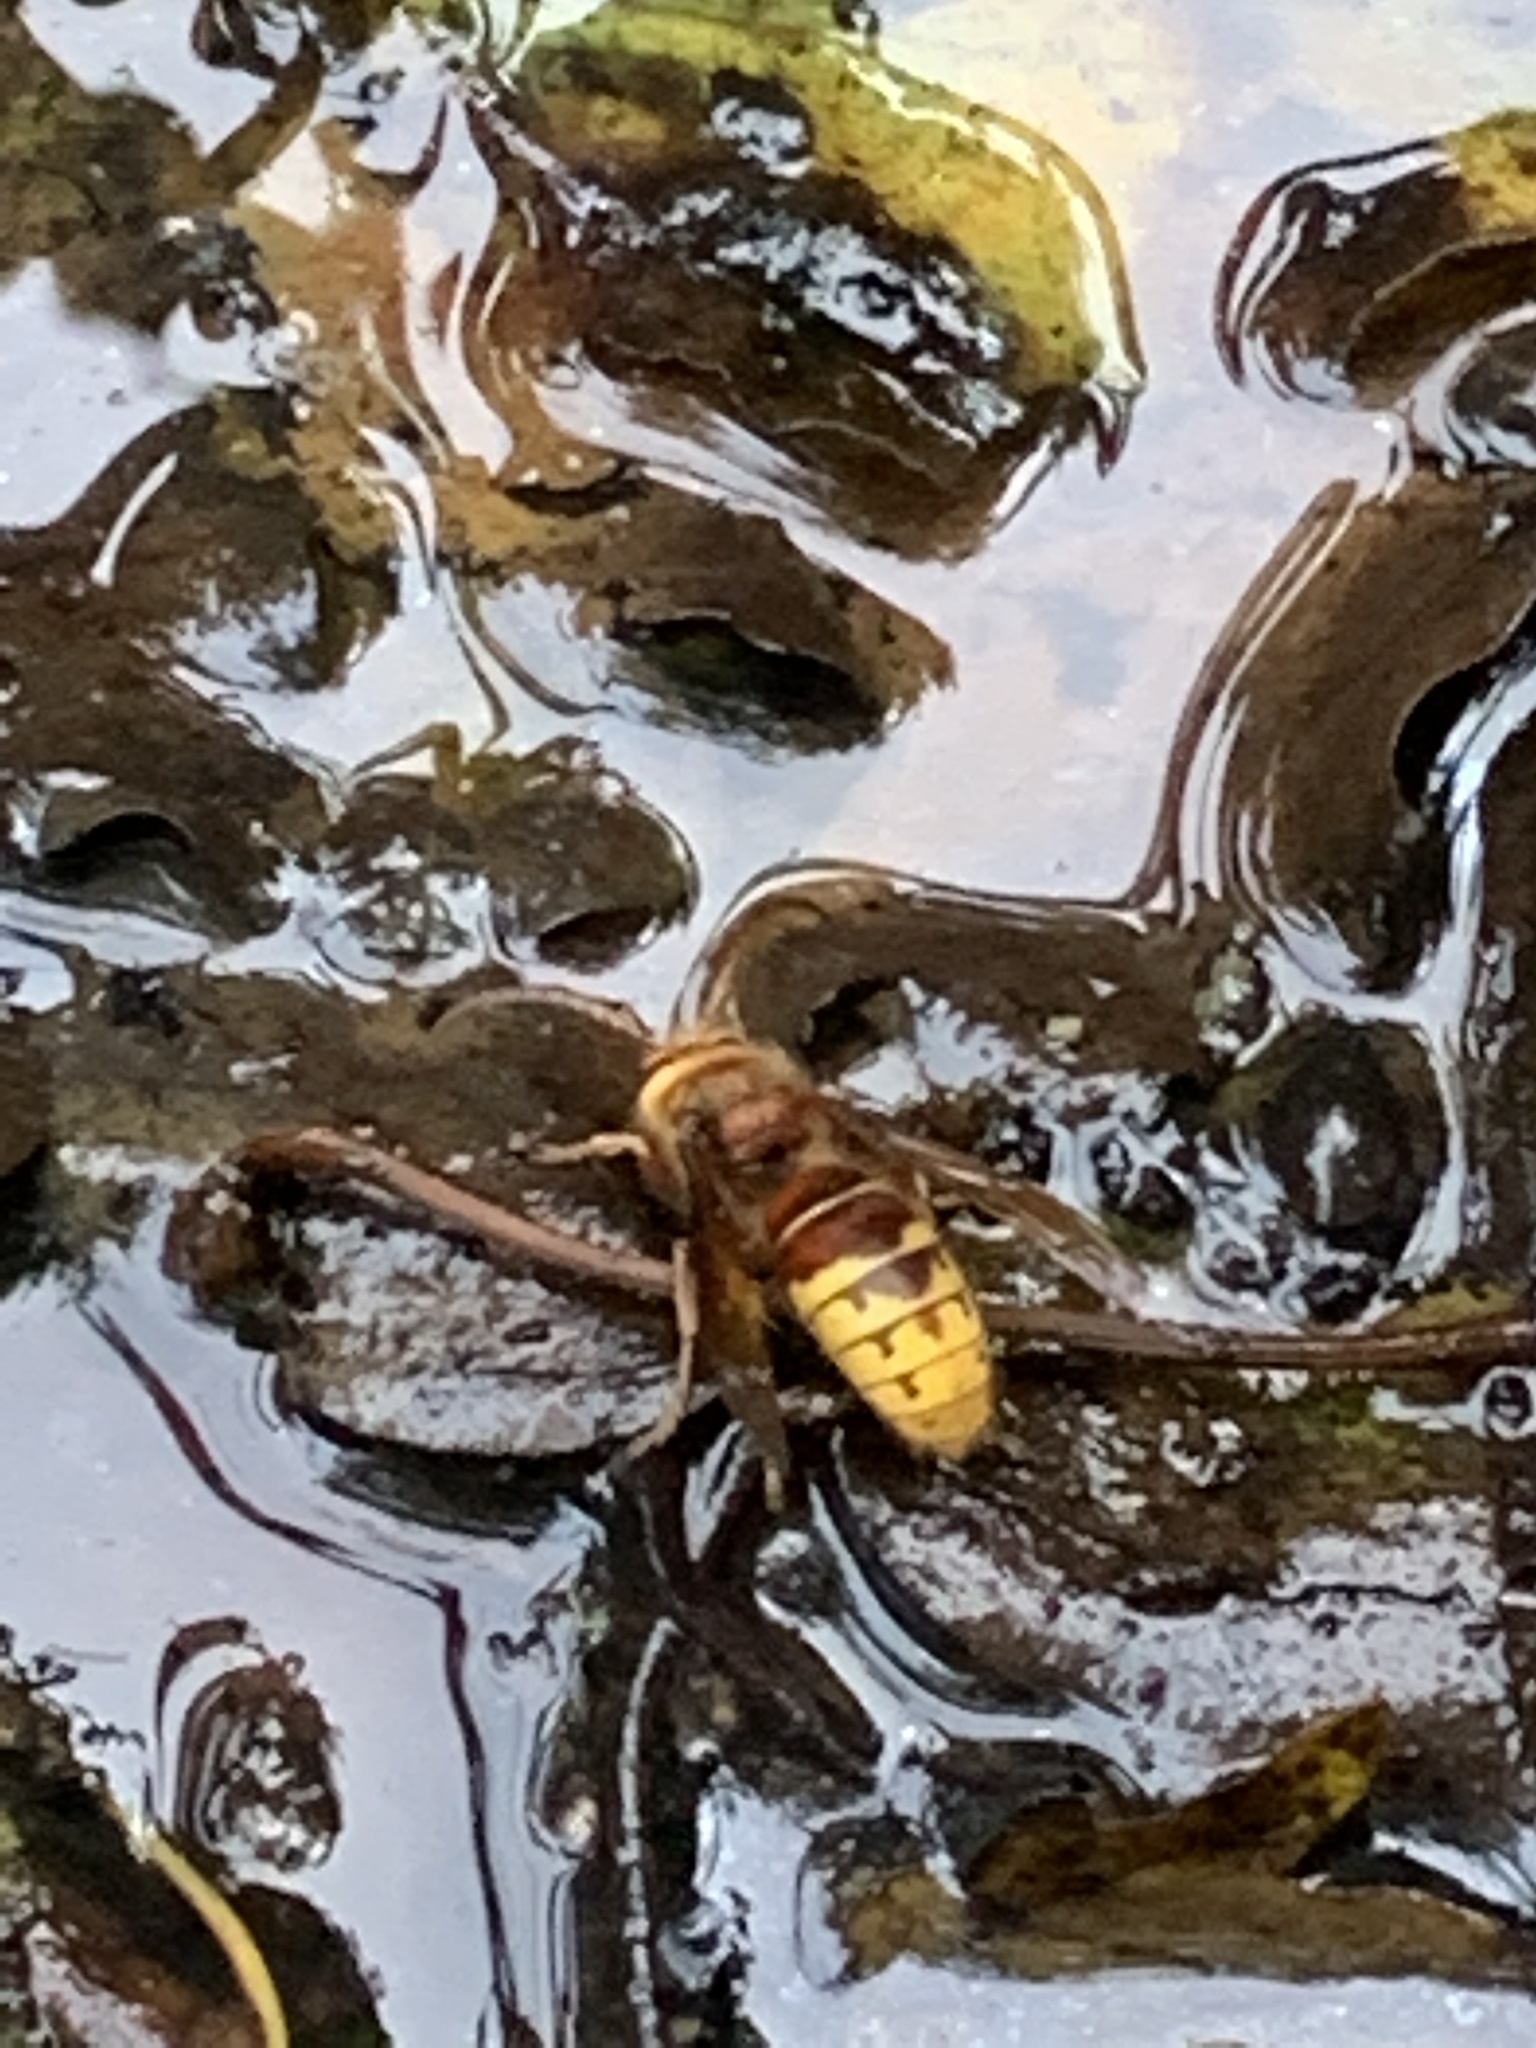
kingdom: Animalia
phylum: Arthropoda
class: Insecta
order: Hymenoptera
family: Vespidae
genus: Vespa
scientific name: Vespa crabro
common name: Hornet
